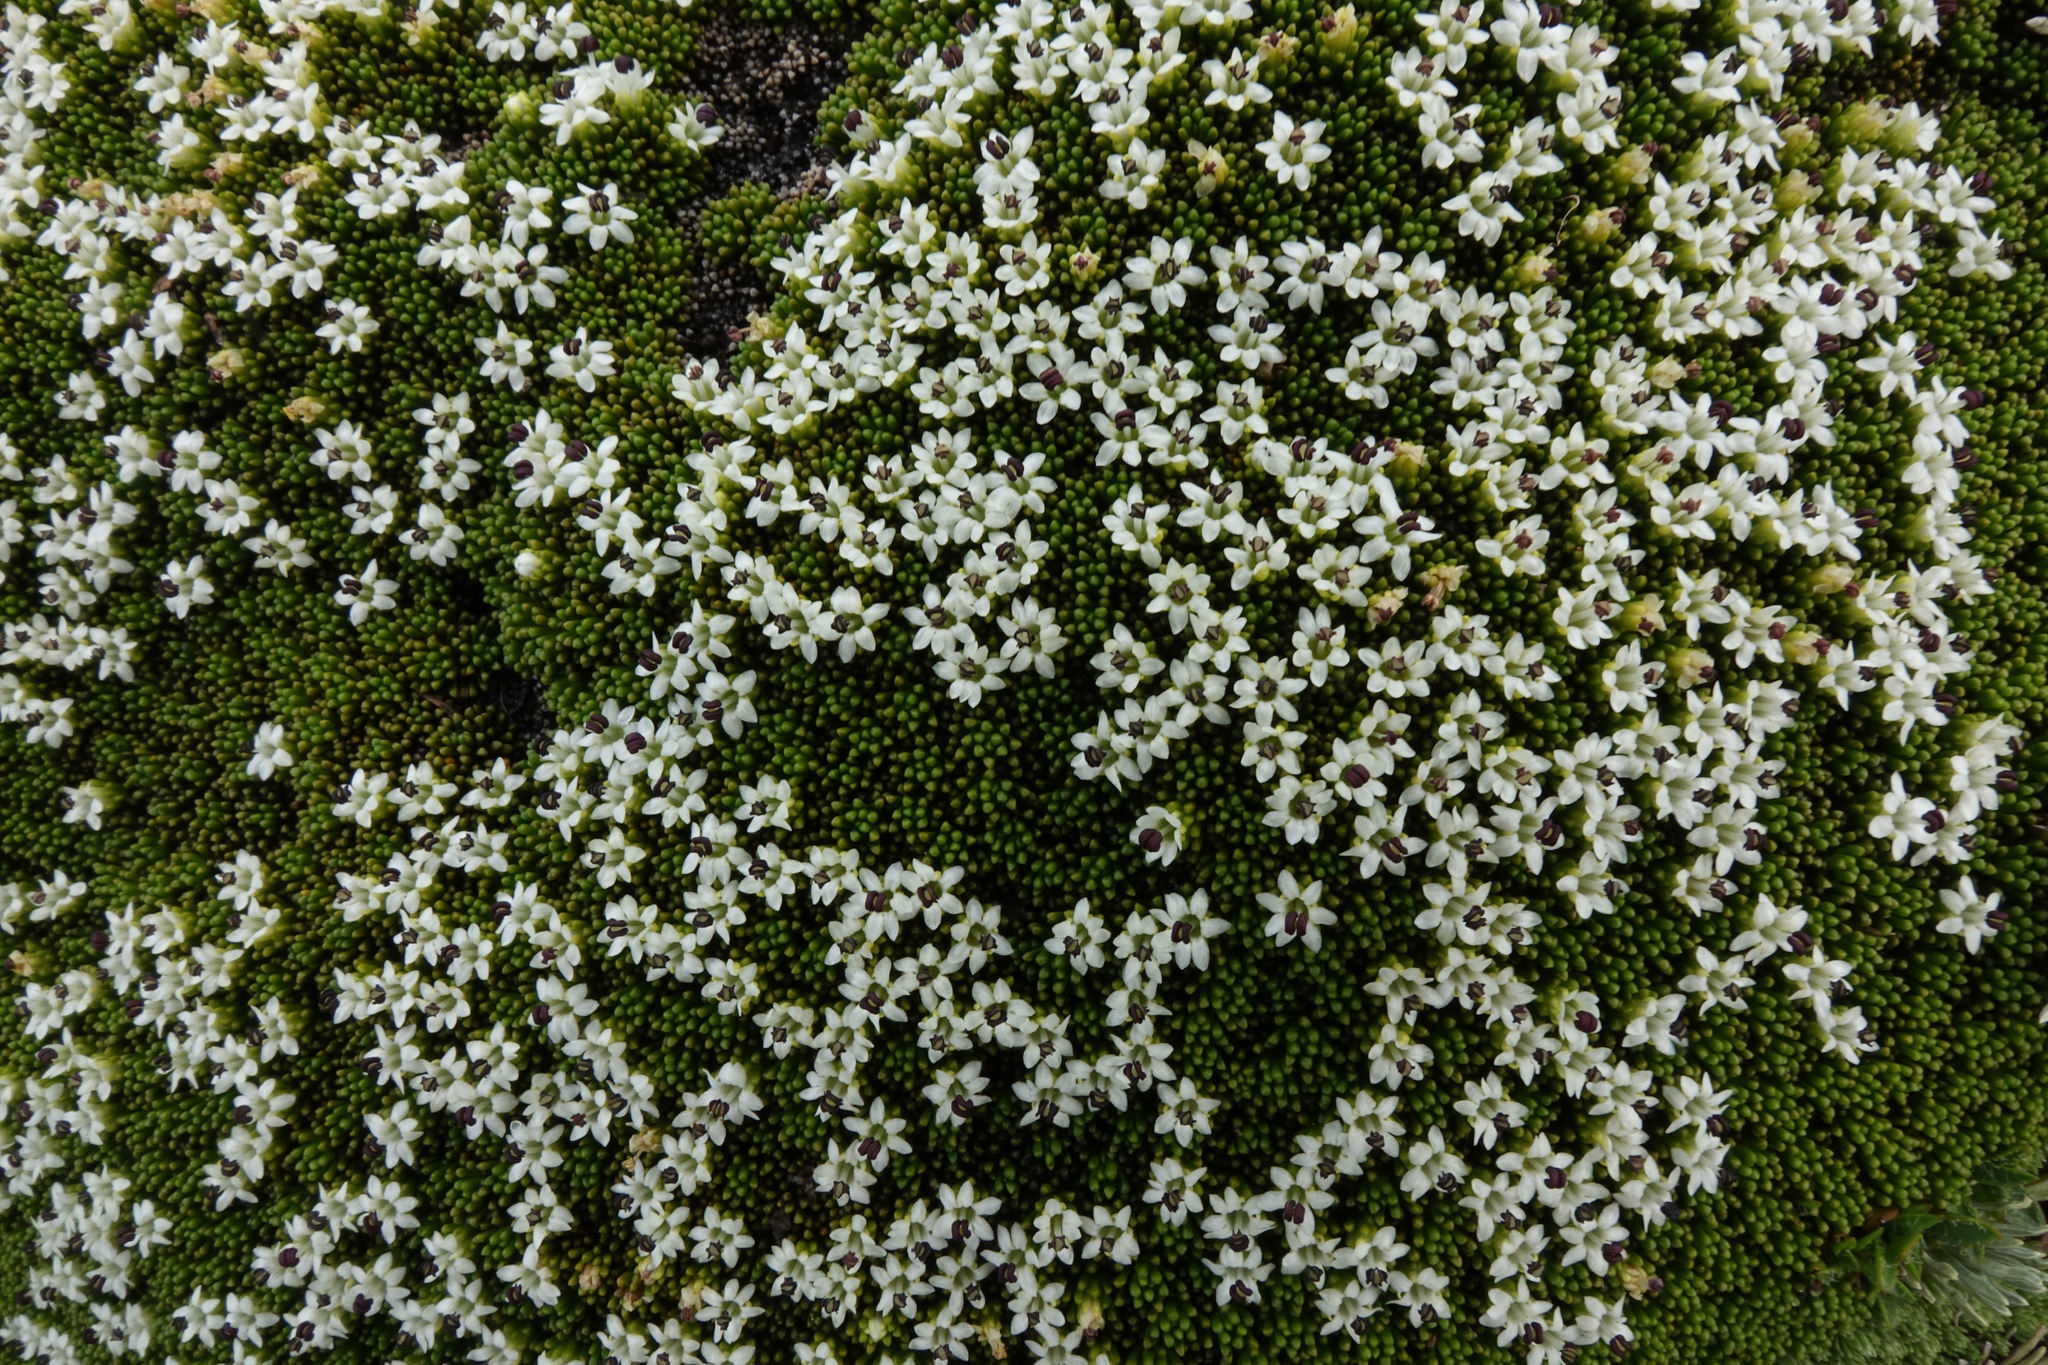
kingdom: Plantae
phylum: Tracheophyta
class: Magnoliopsida
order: Asterales
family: Stylidiaceae
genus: Phyllachne
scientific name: Phyllachne colensoi
